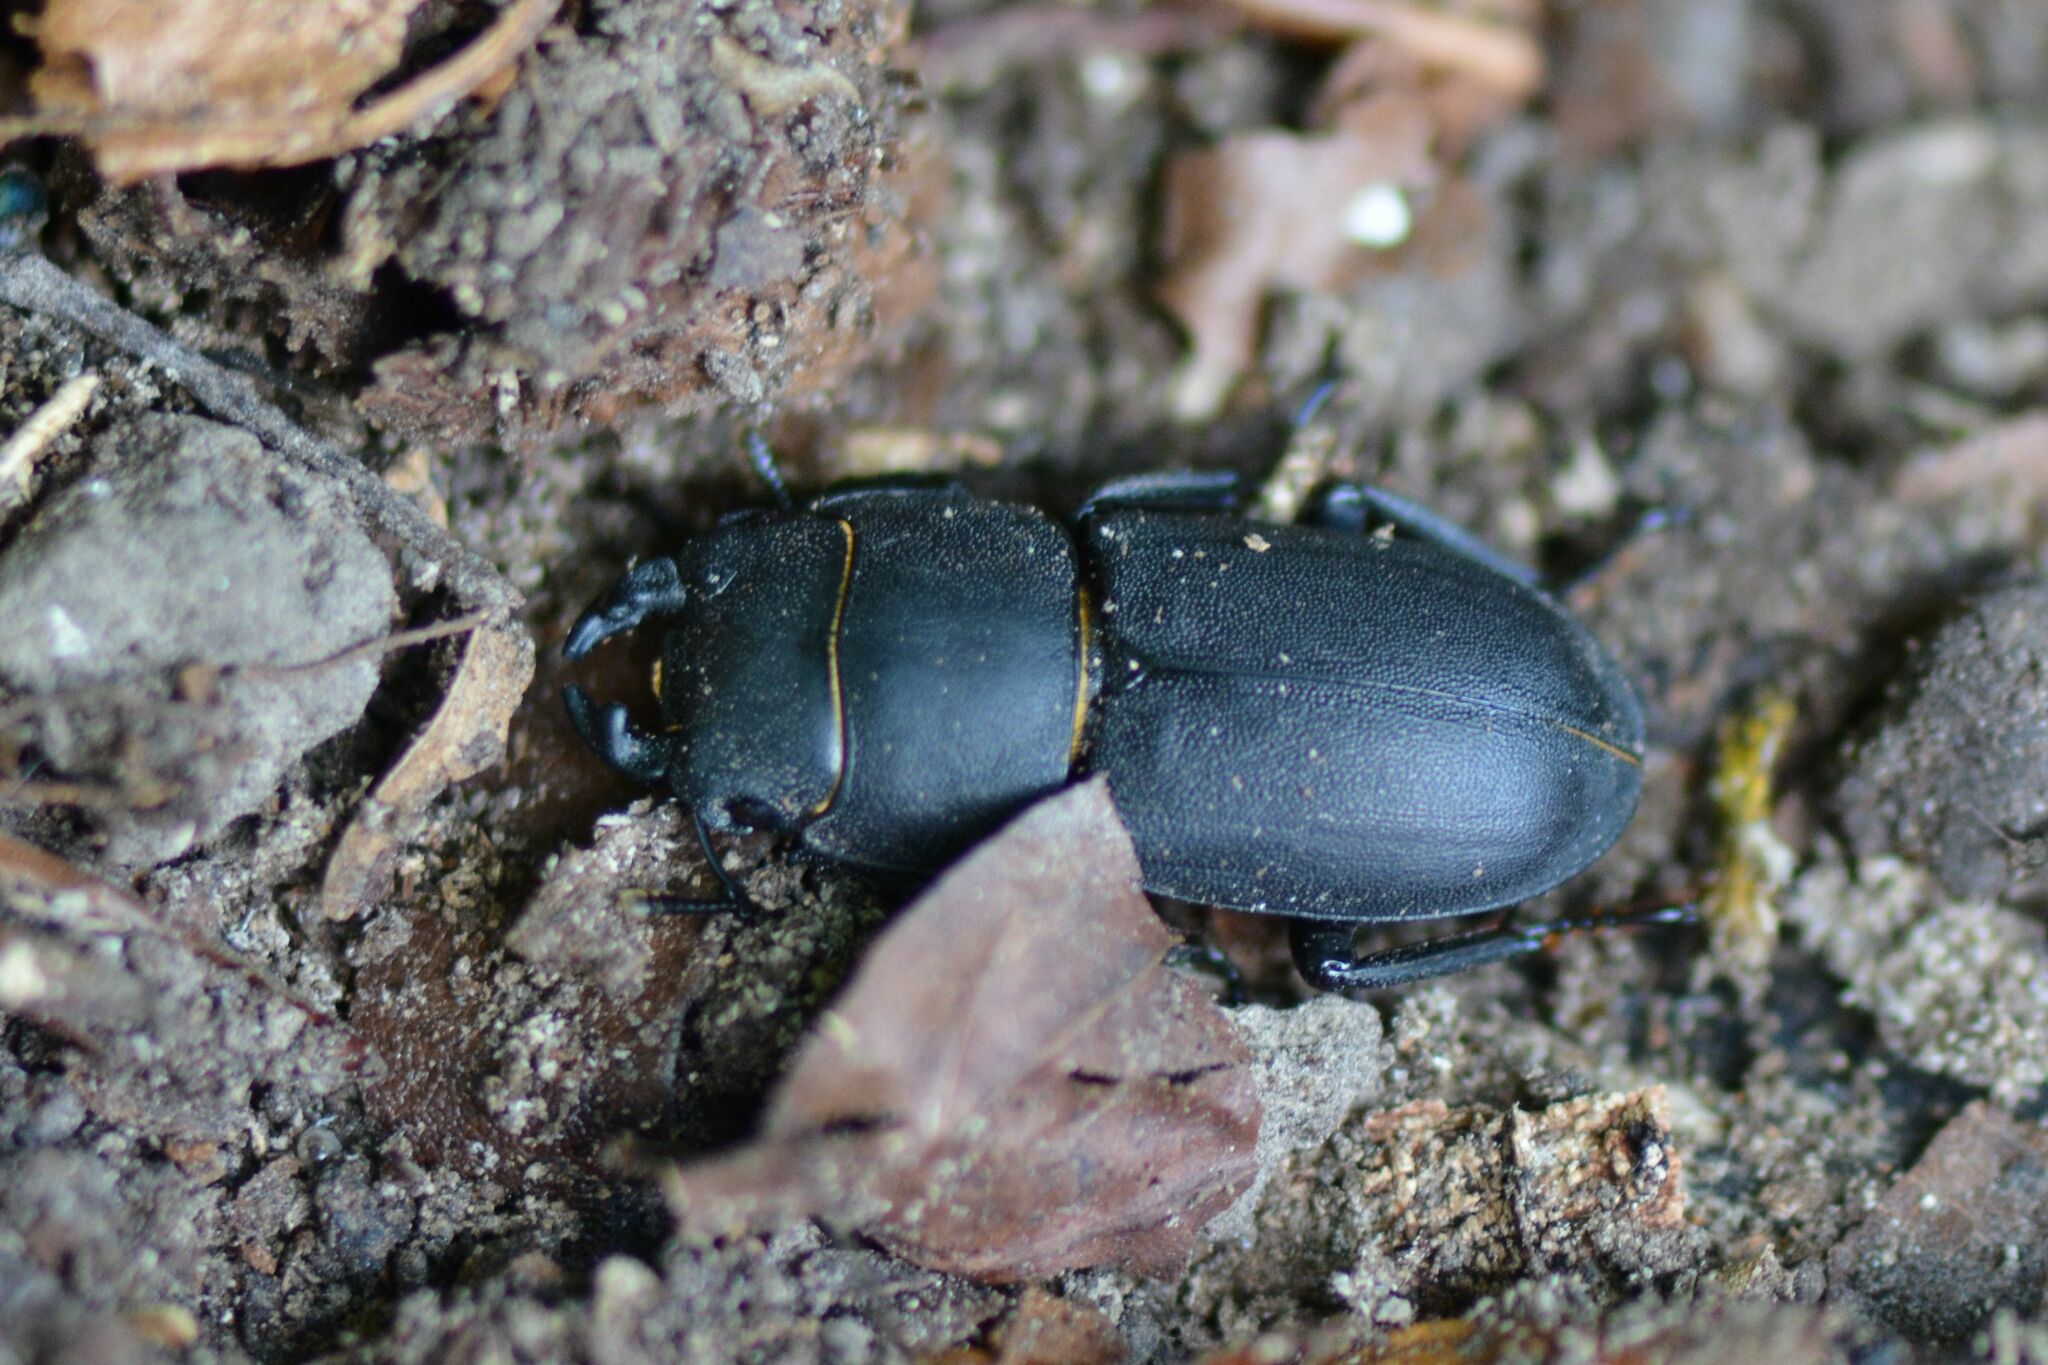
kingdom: Animalia
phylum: Arthropoda
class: Insecta
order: Coleoptera
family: Lucanidae
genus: Dorcus
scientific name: Dorcus parallelipipedus
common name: Lesser stag beetle
